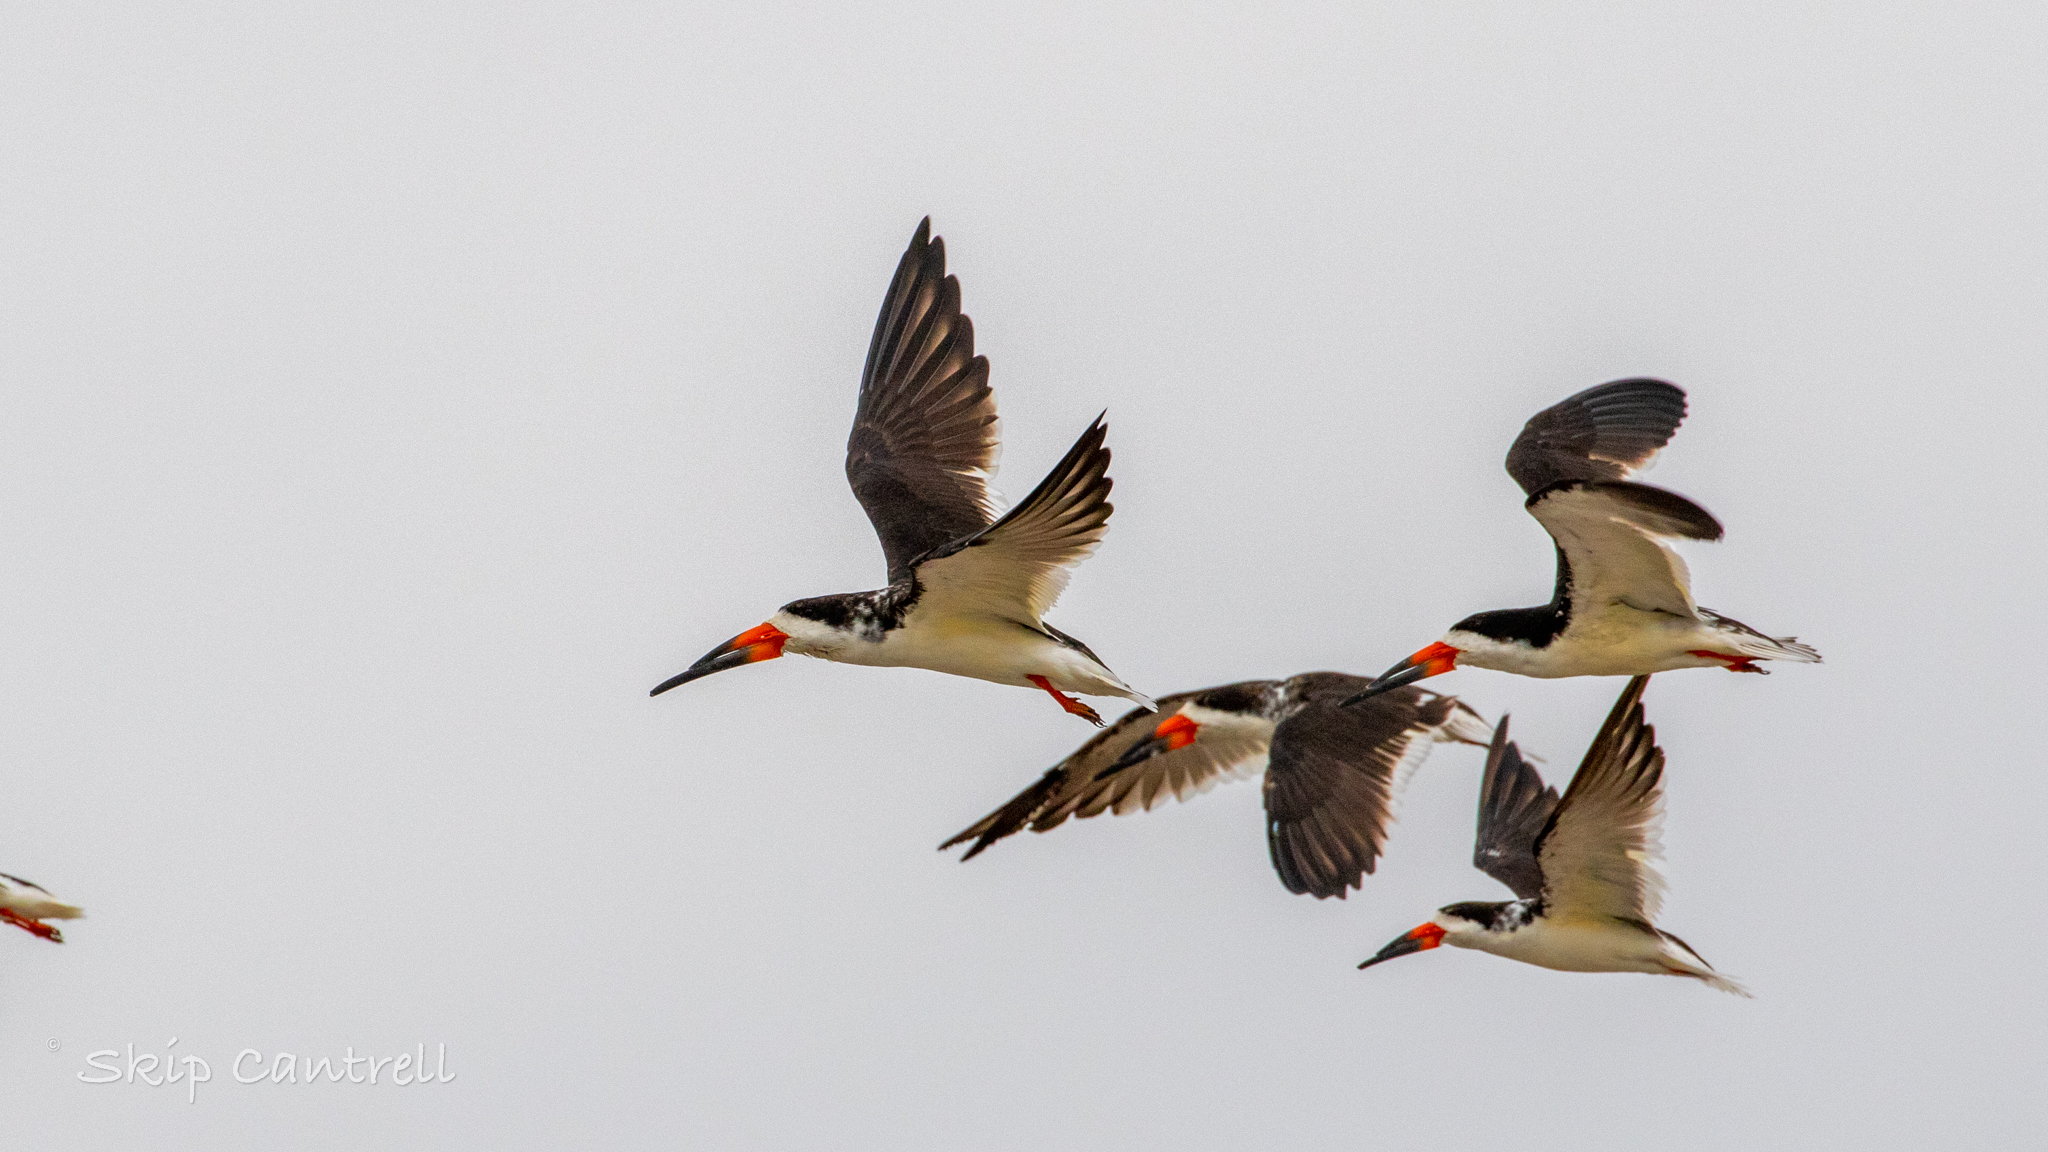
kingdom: Animalia
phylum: Chordata
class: Aves
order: Charadriiformes
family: Laridae
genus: Rynchops
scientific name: Rynchops niger
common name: Black skimmer
